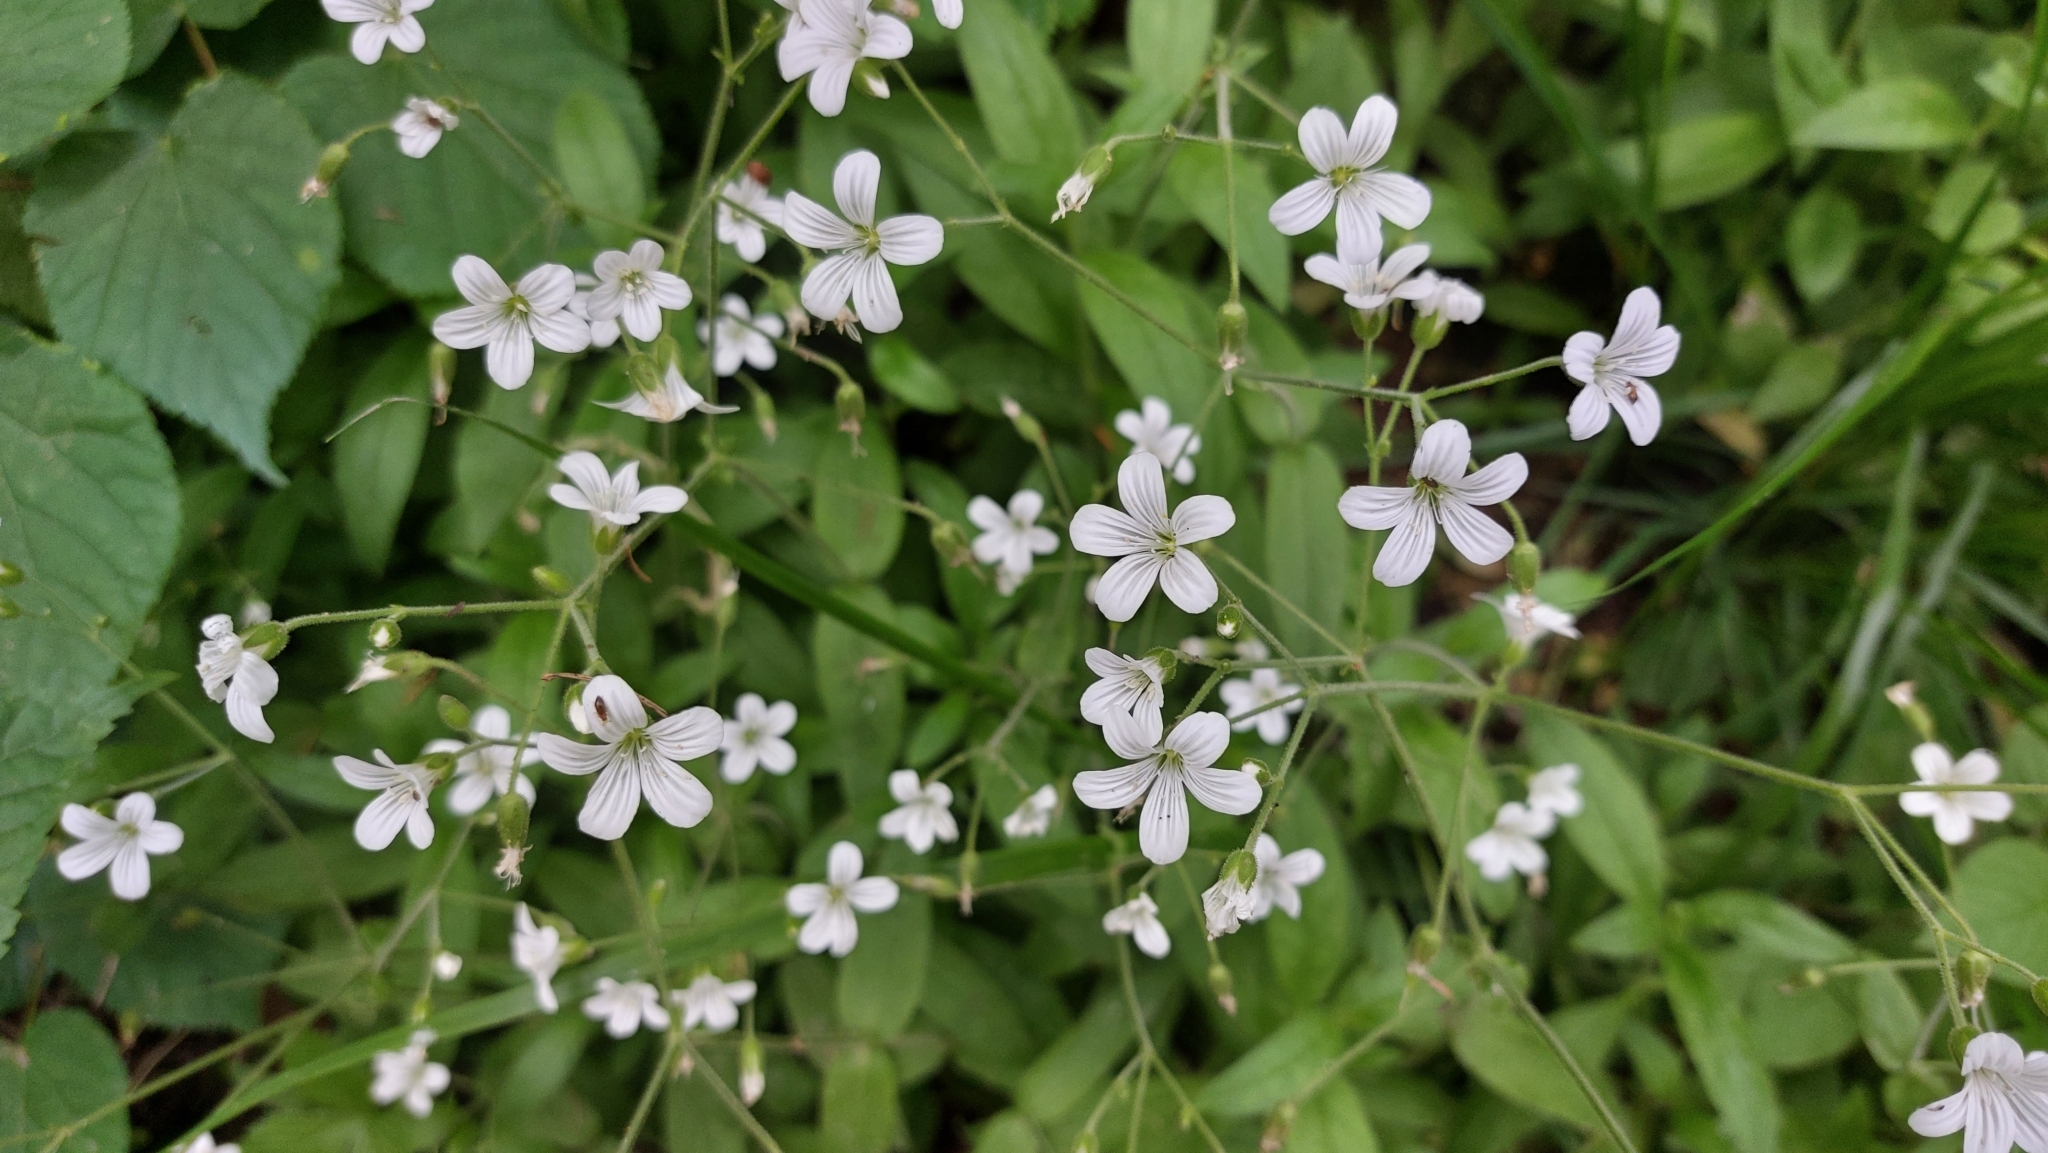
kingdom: Plantae
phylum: Tracheophyta
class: Magnoliopsida
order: Caryophyllales
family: Caryophyllaceae
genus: Cerastium
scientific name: Cerastium pauciflorum
